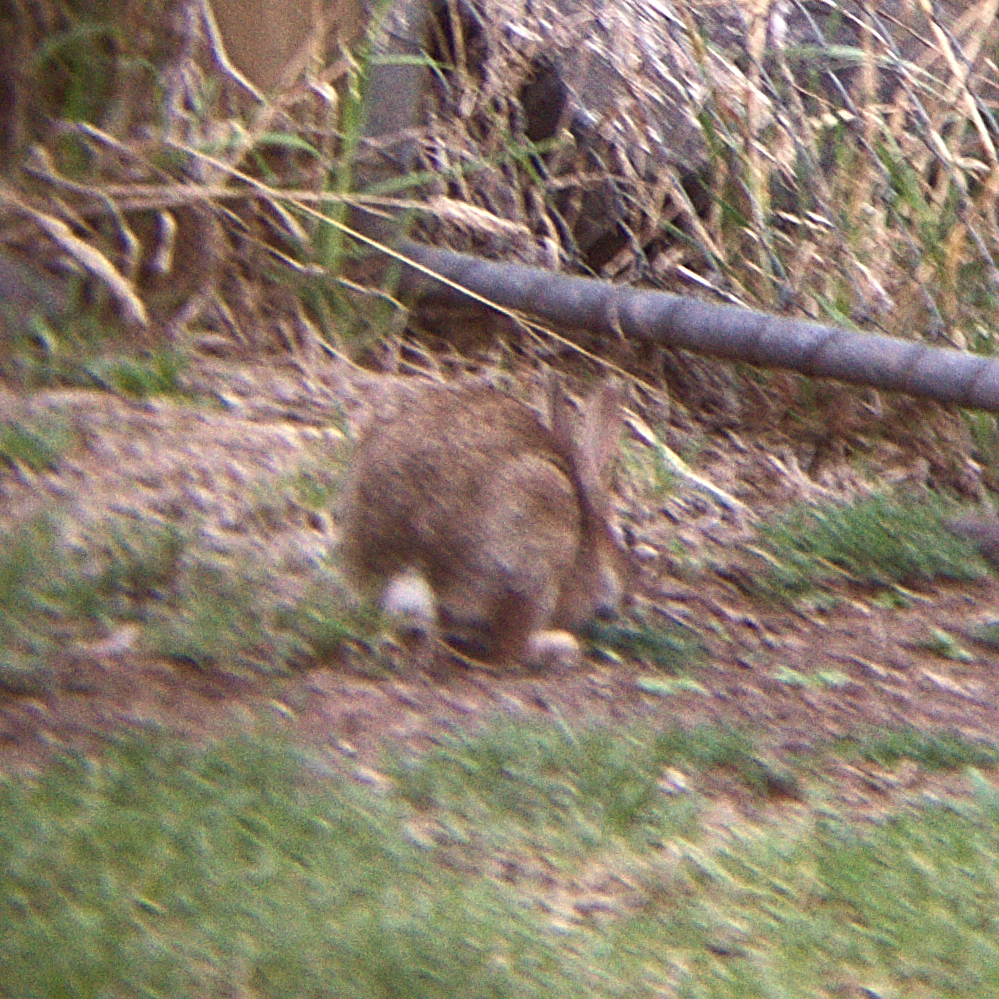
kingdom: Animalia
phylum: Chordata
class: Mammalia
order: Lagomorpha
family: Leporidae
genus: Oryctolagus
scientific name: Oryctolagus cuniculus
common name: European rabbit
